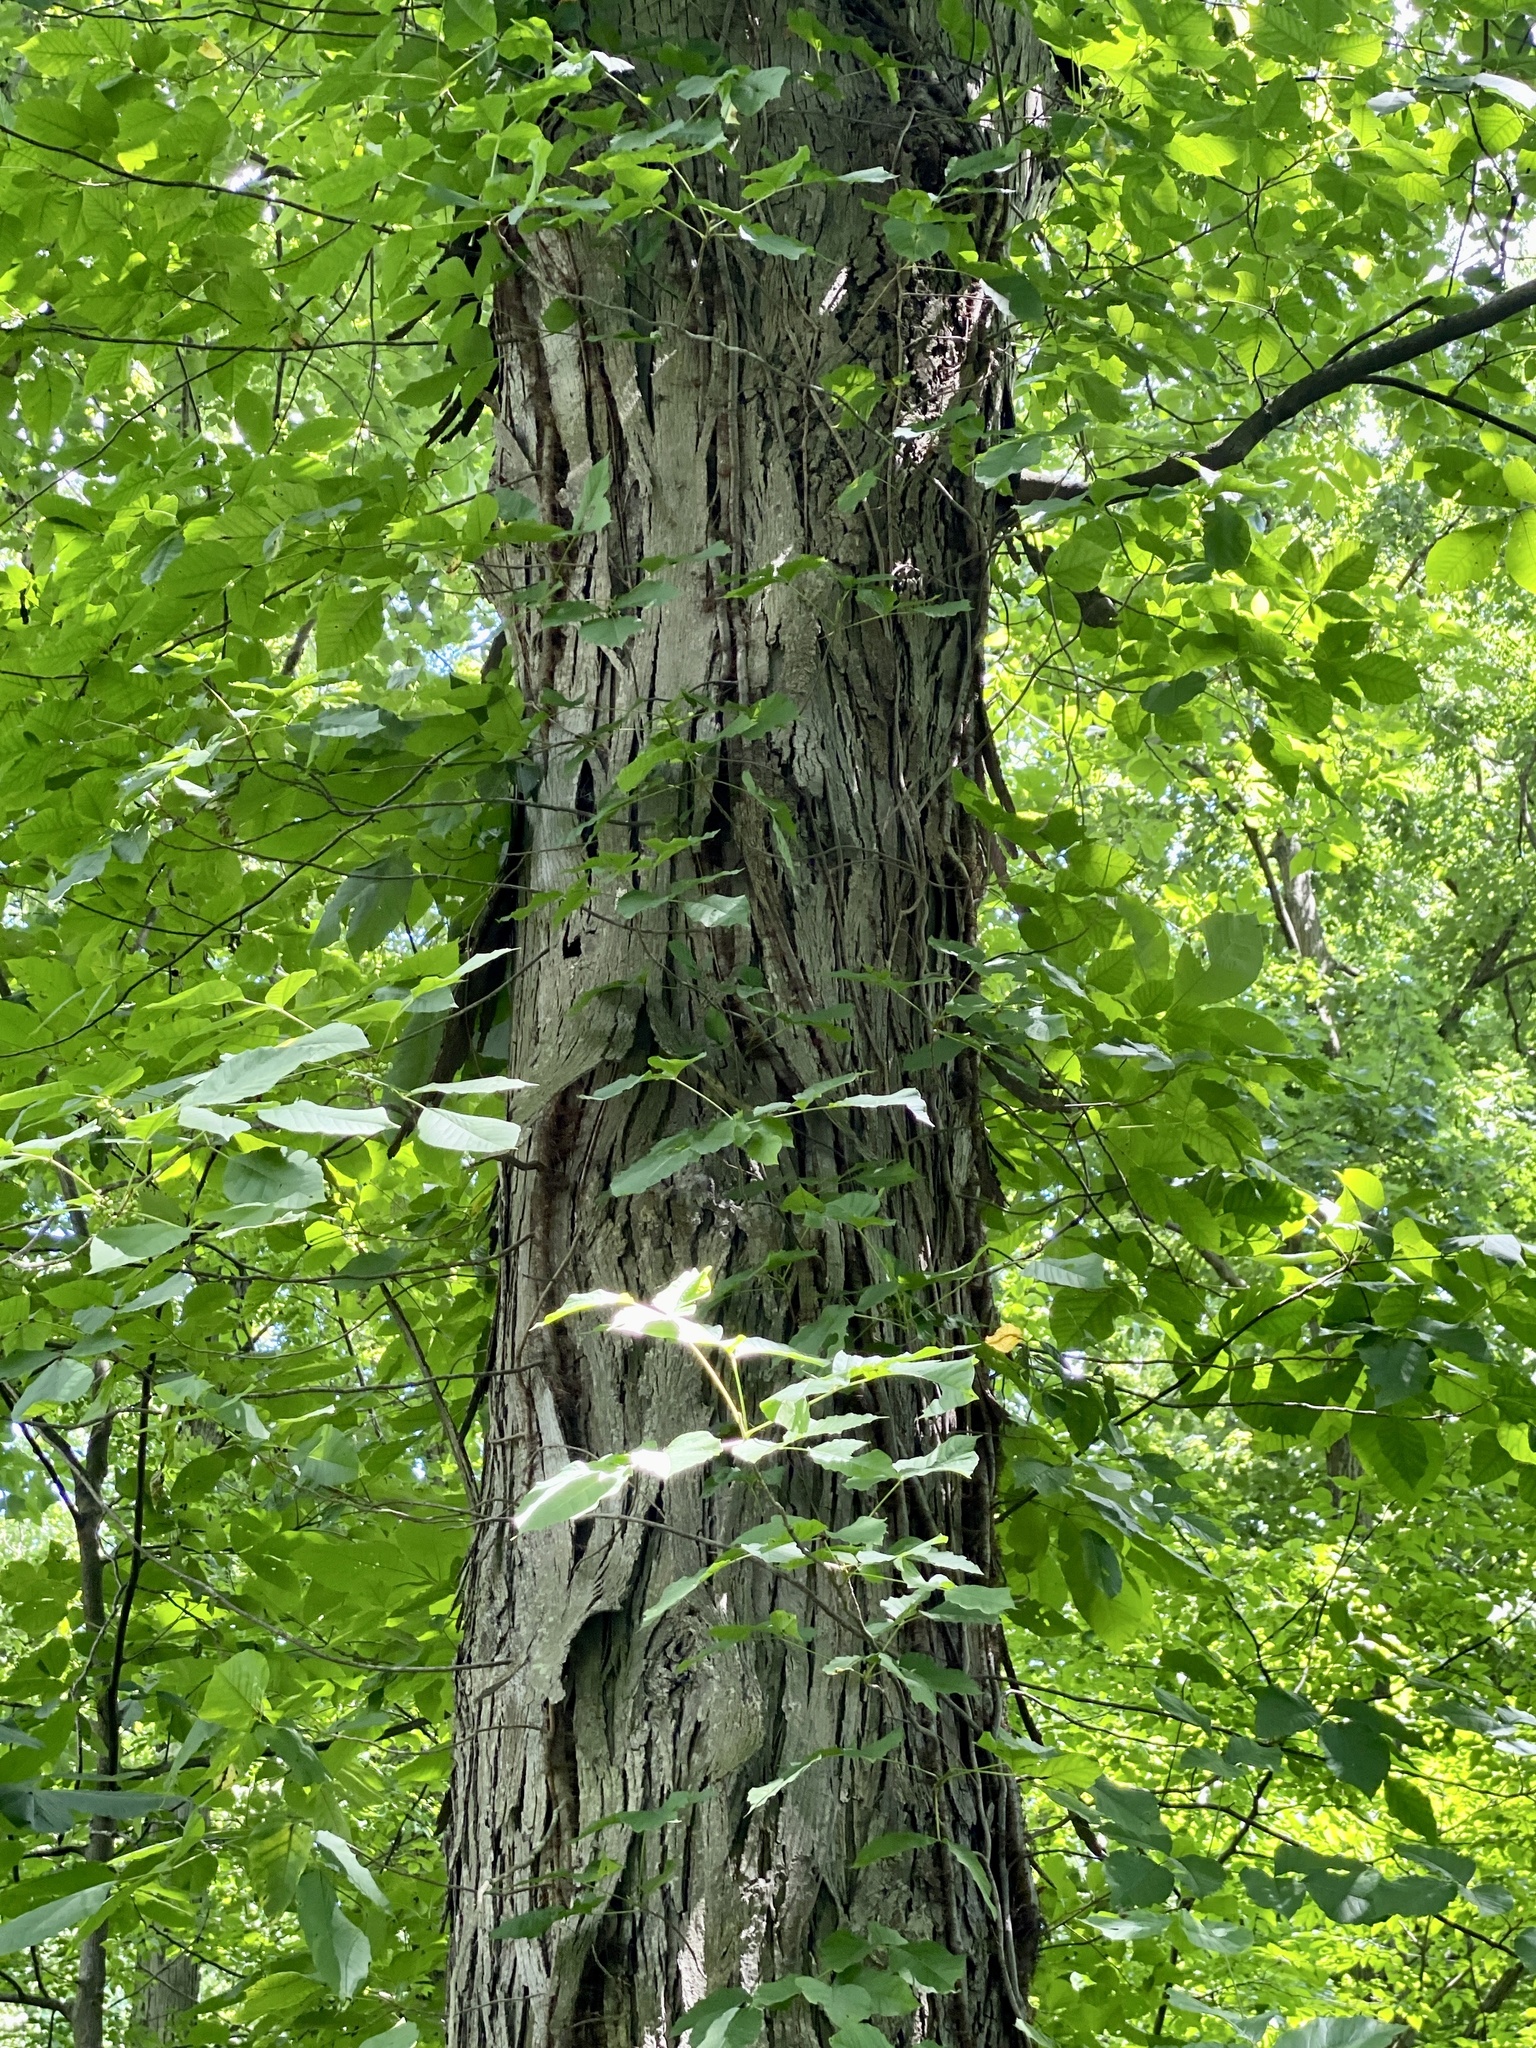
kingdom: Plantae
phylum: Tracheophyta
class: Magnoliopsida
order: Fagales
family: Juglandaceae
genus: Carya
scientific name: Carya ovata
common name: Shagbark hickory
